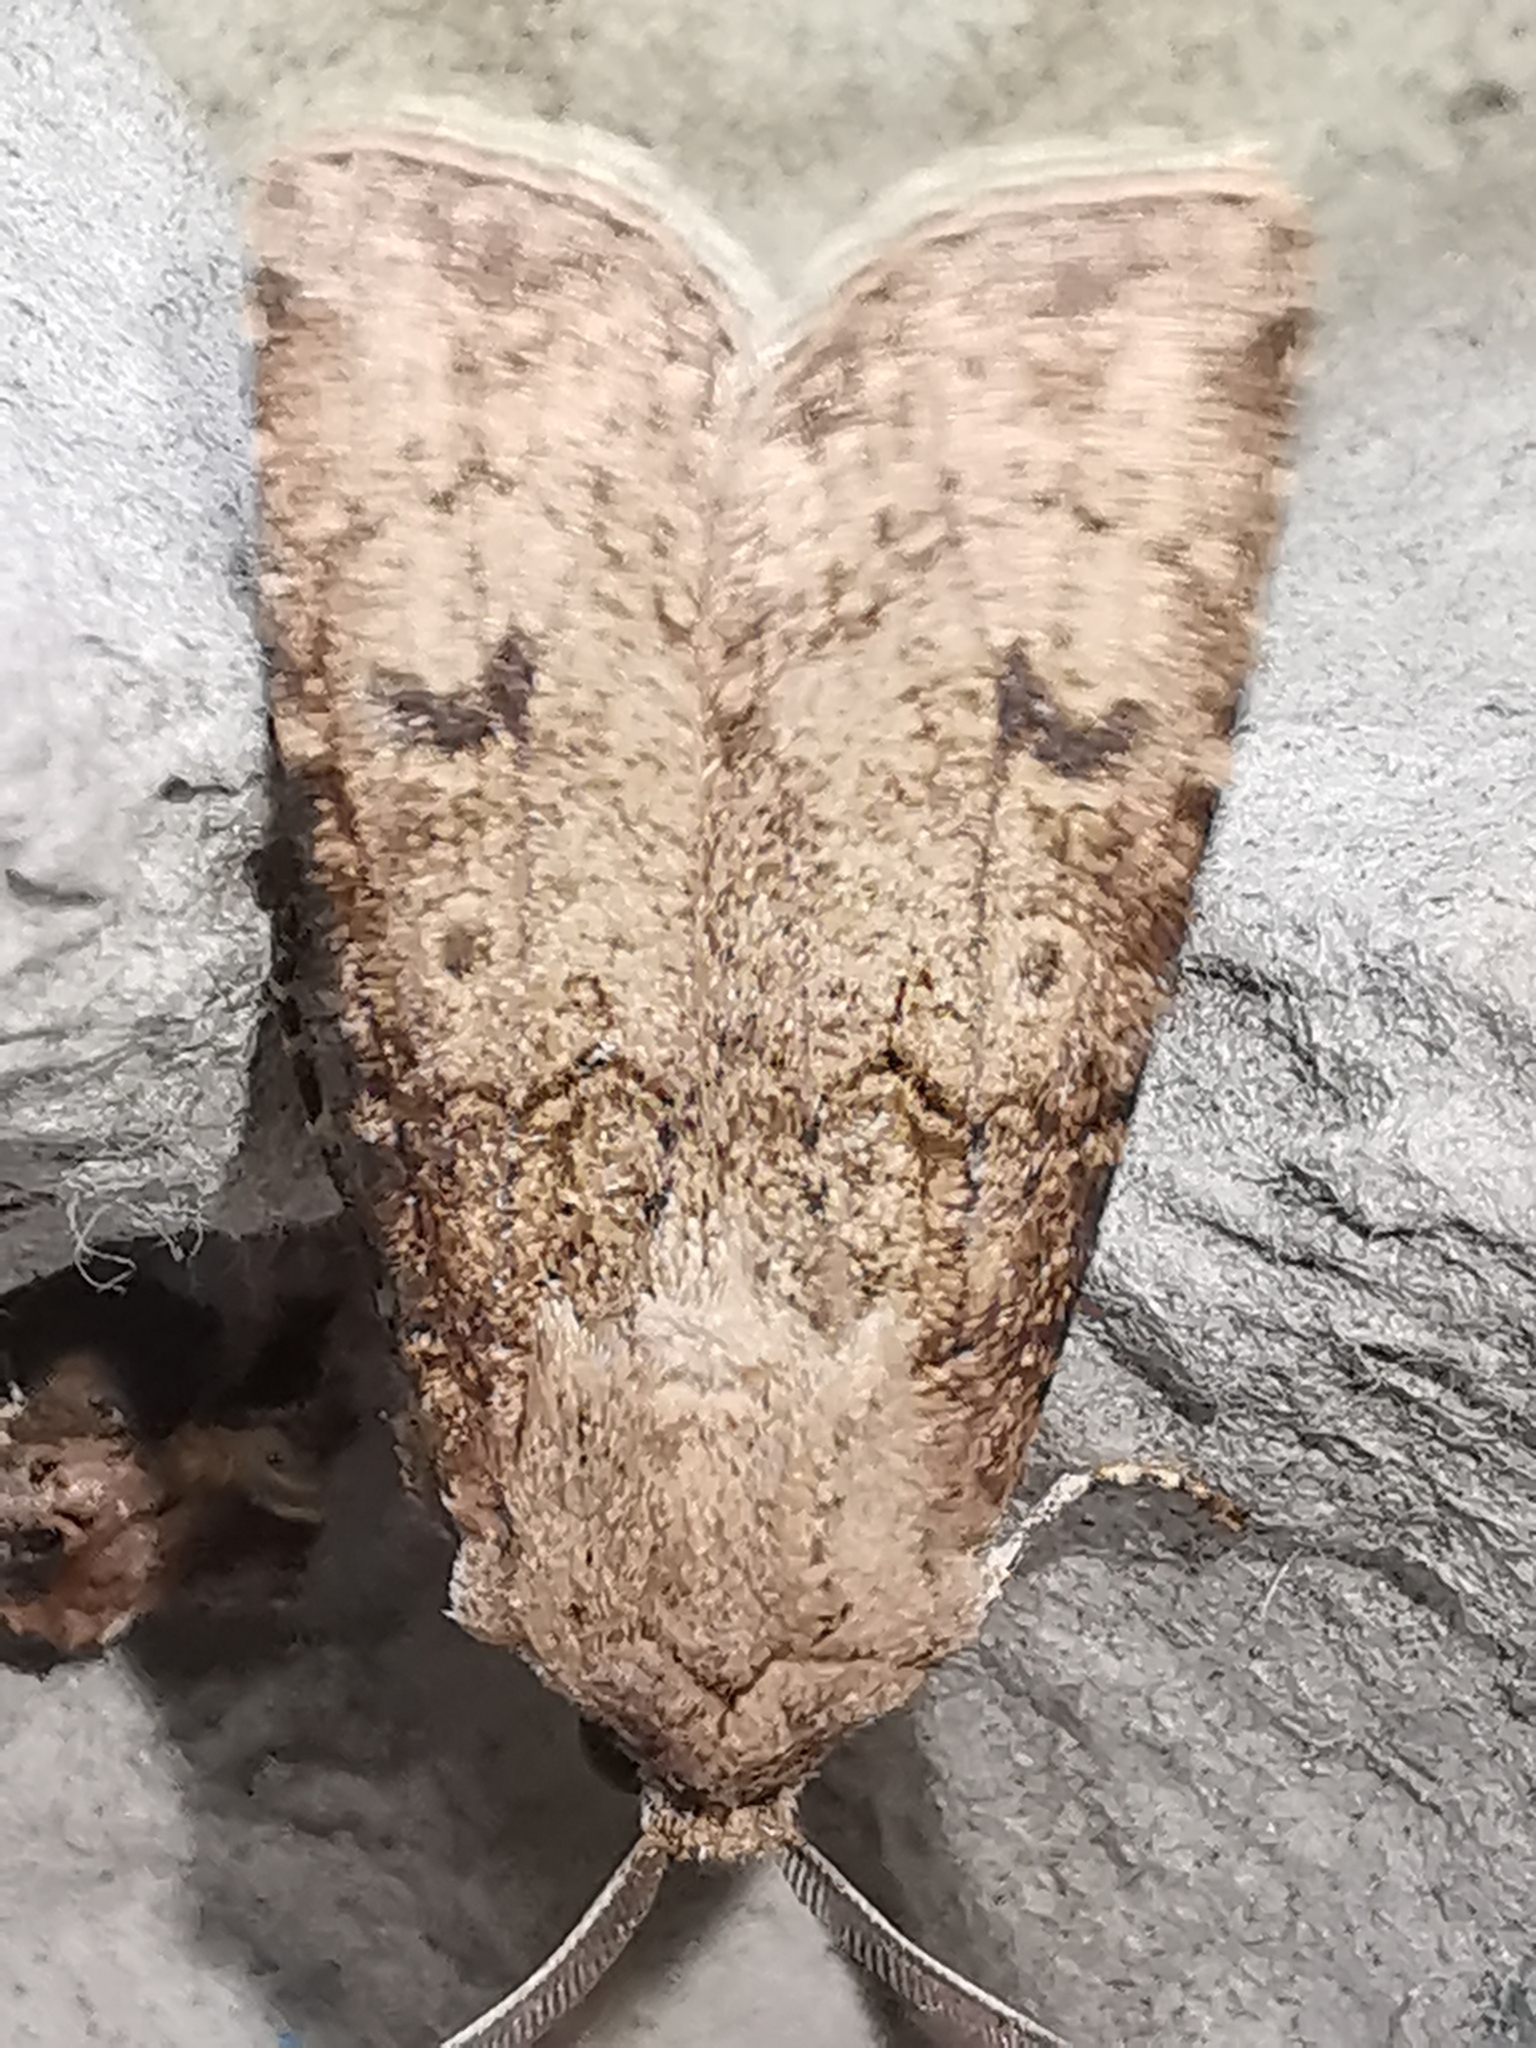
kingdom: Animalia
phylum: Arthropoda
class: Insecta
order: Lepidoptera
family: Noctuidae
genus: Agrotis
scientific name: Agrotis segetum
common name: Turnip moth
